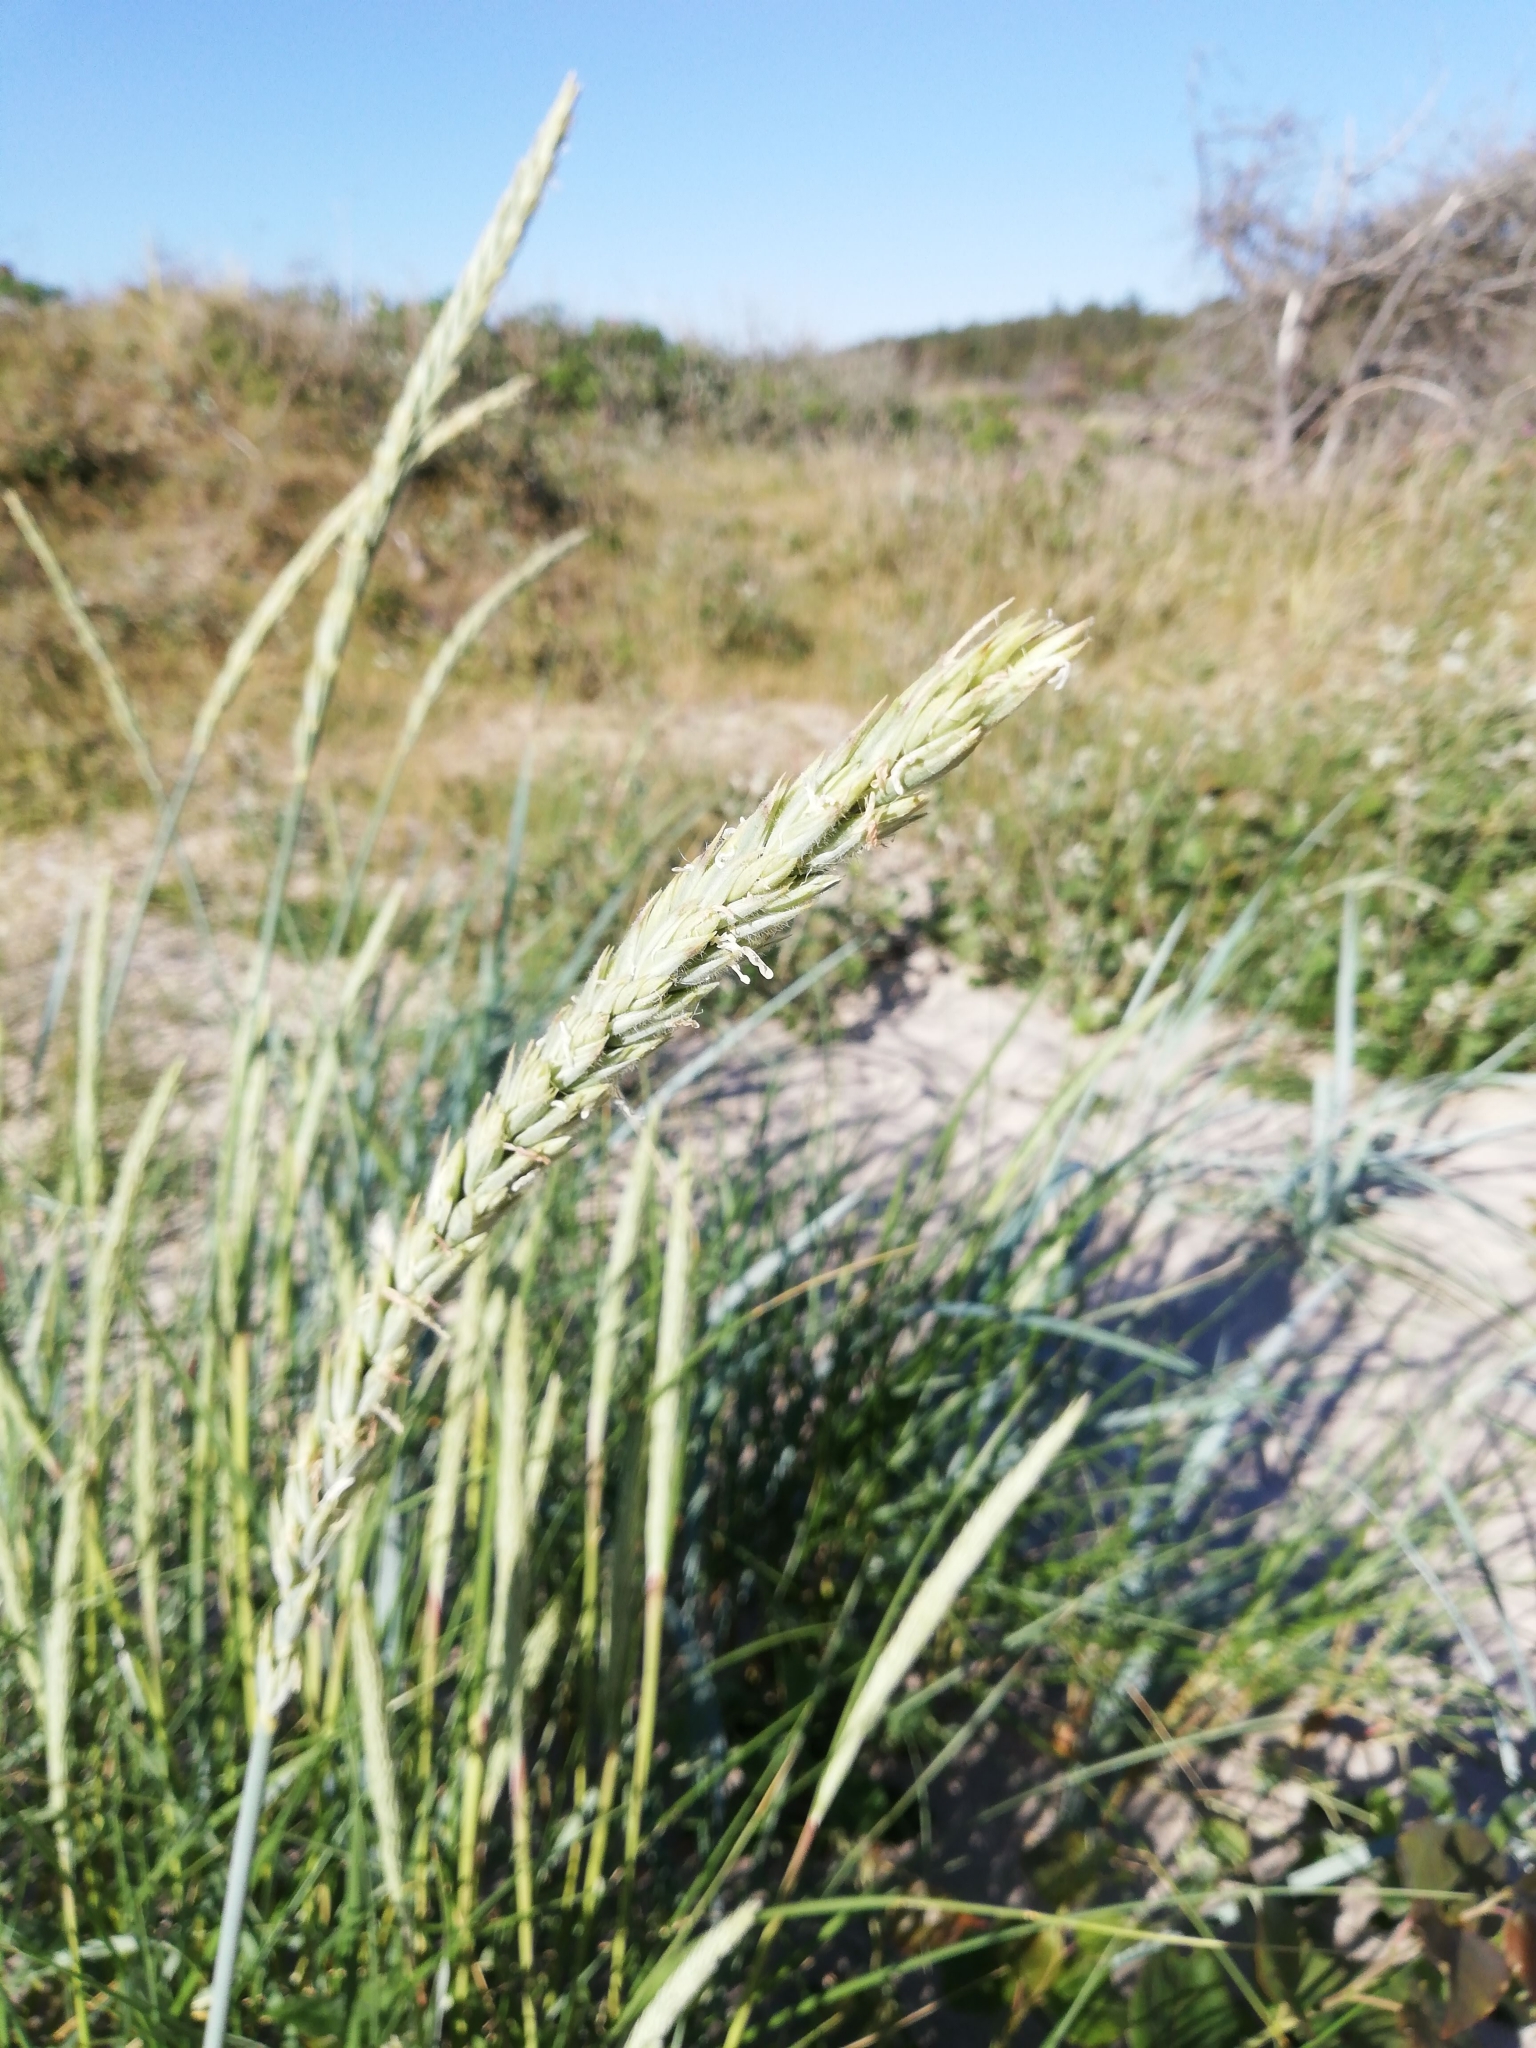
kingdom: Plantae
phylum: Tracheophyta
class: Liliopsida
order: Poales
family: Poaceae
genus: Leymus
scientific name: Leymus arenarius
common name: Lyme-grass
